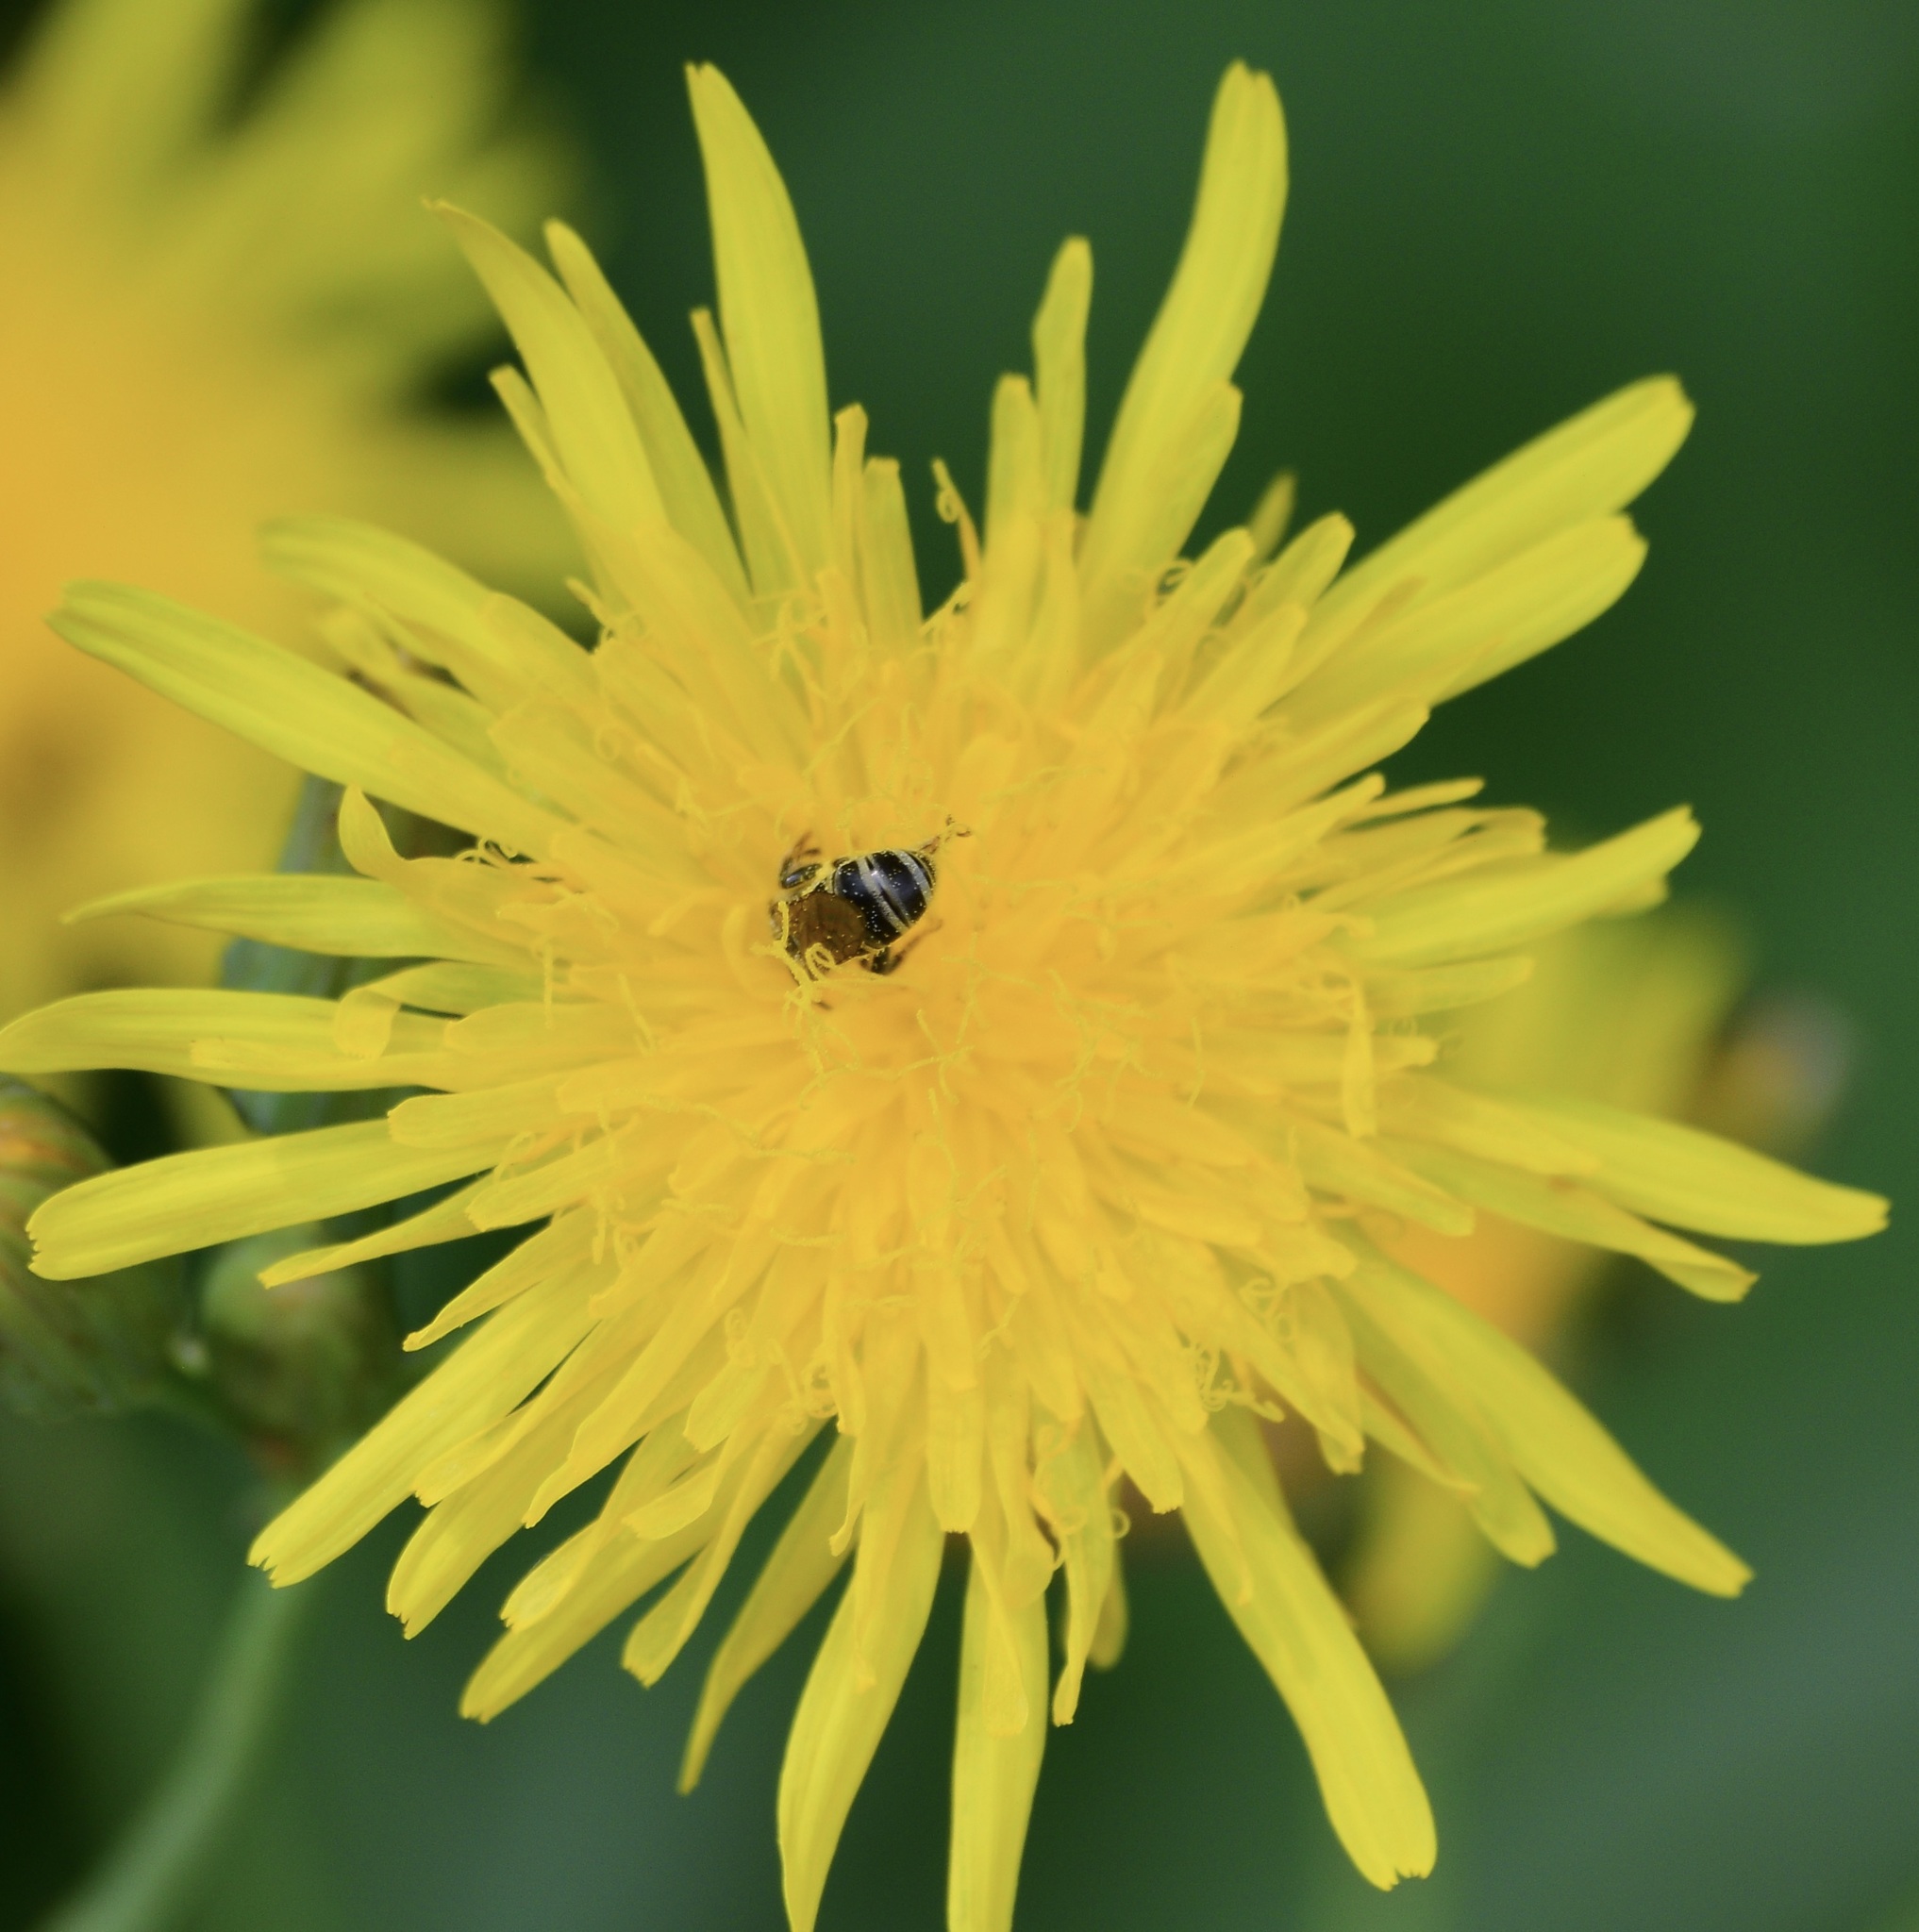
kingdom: Animalia
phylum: Arthropoda
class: Insecta
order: Hymenoptera
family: Halictidae
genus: Halictus
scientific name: Halictus ligatus
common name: Ligated furrow bee
